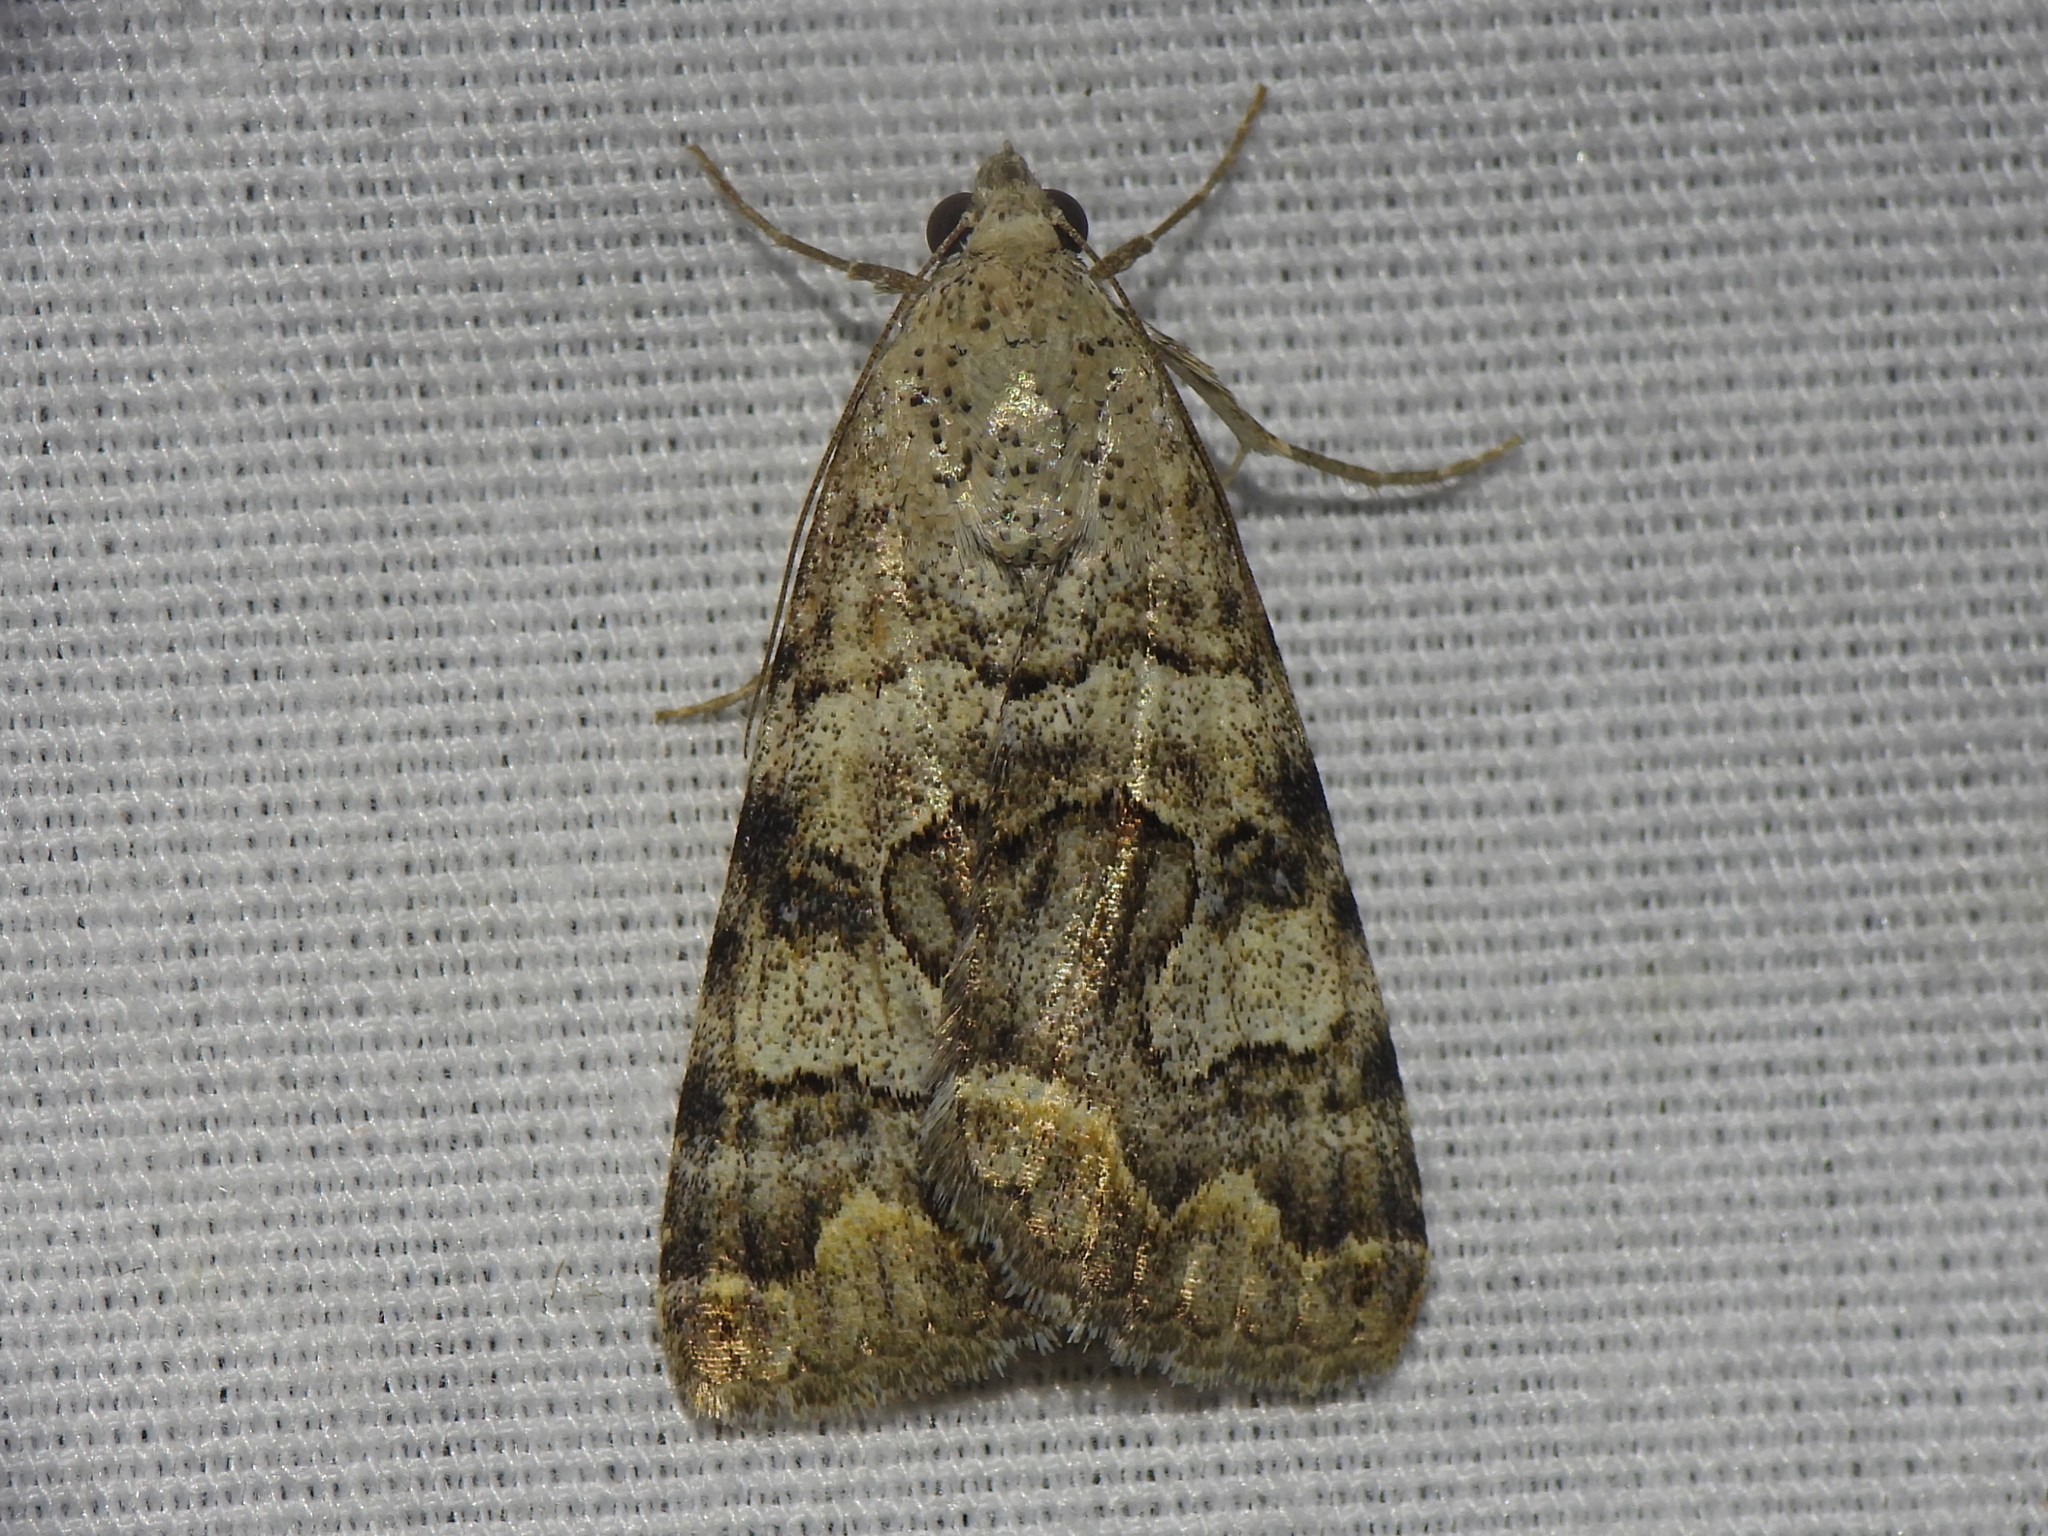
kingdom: Animalia
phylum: Arthropoda
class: Insecta
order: Lepidoptera
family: Erebidae
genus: Bulia
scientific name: Bulia deducta
